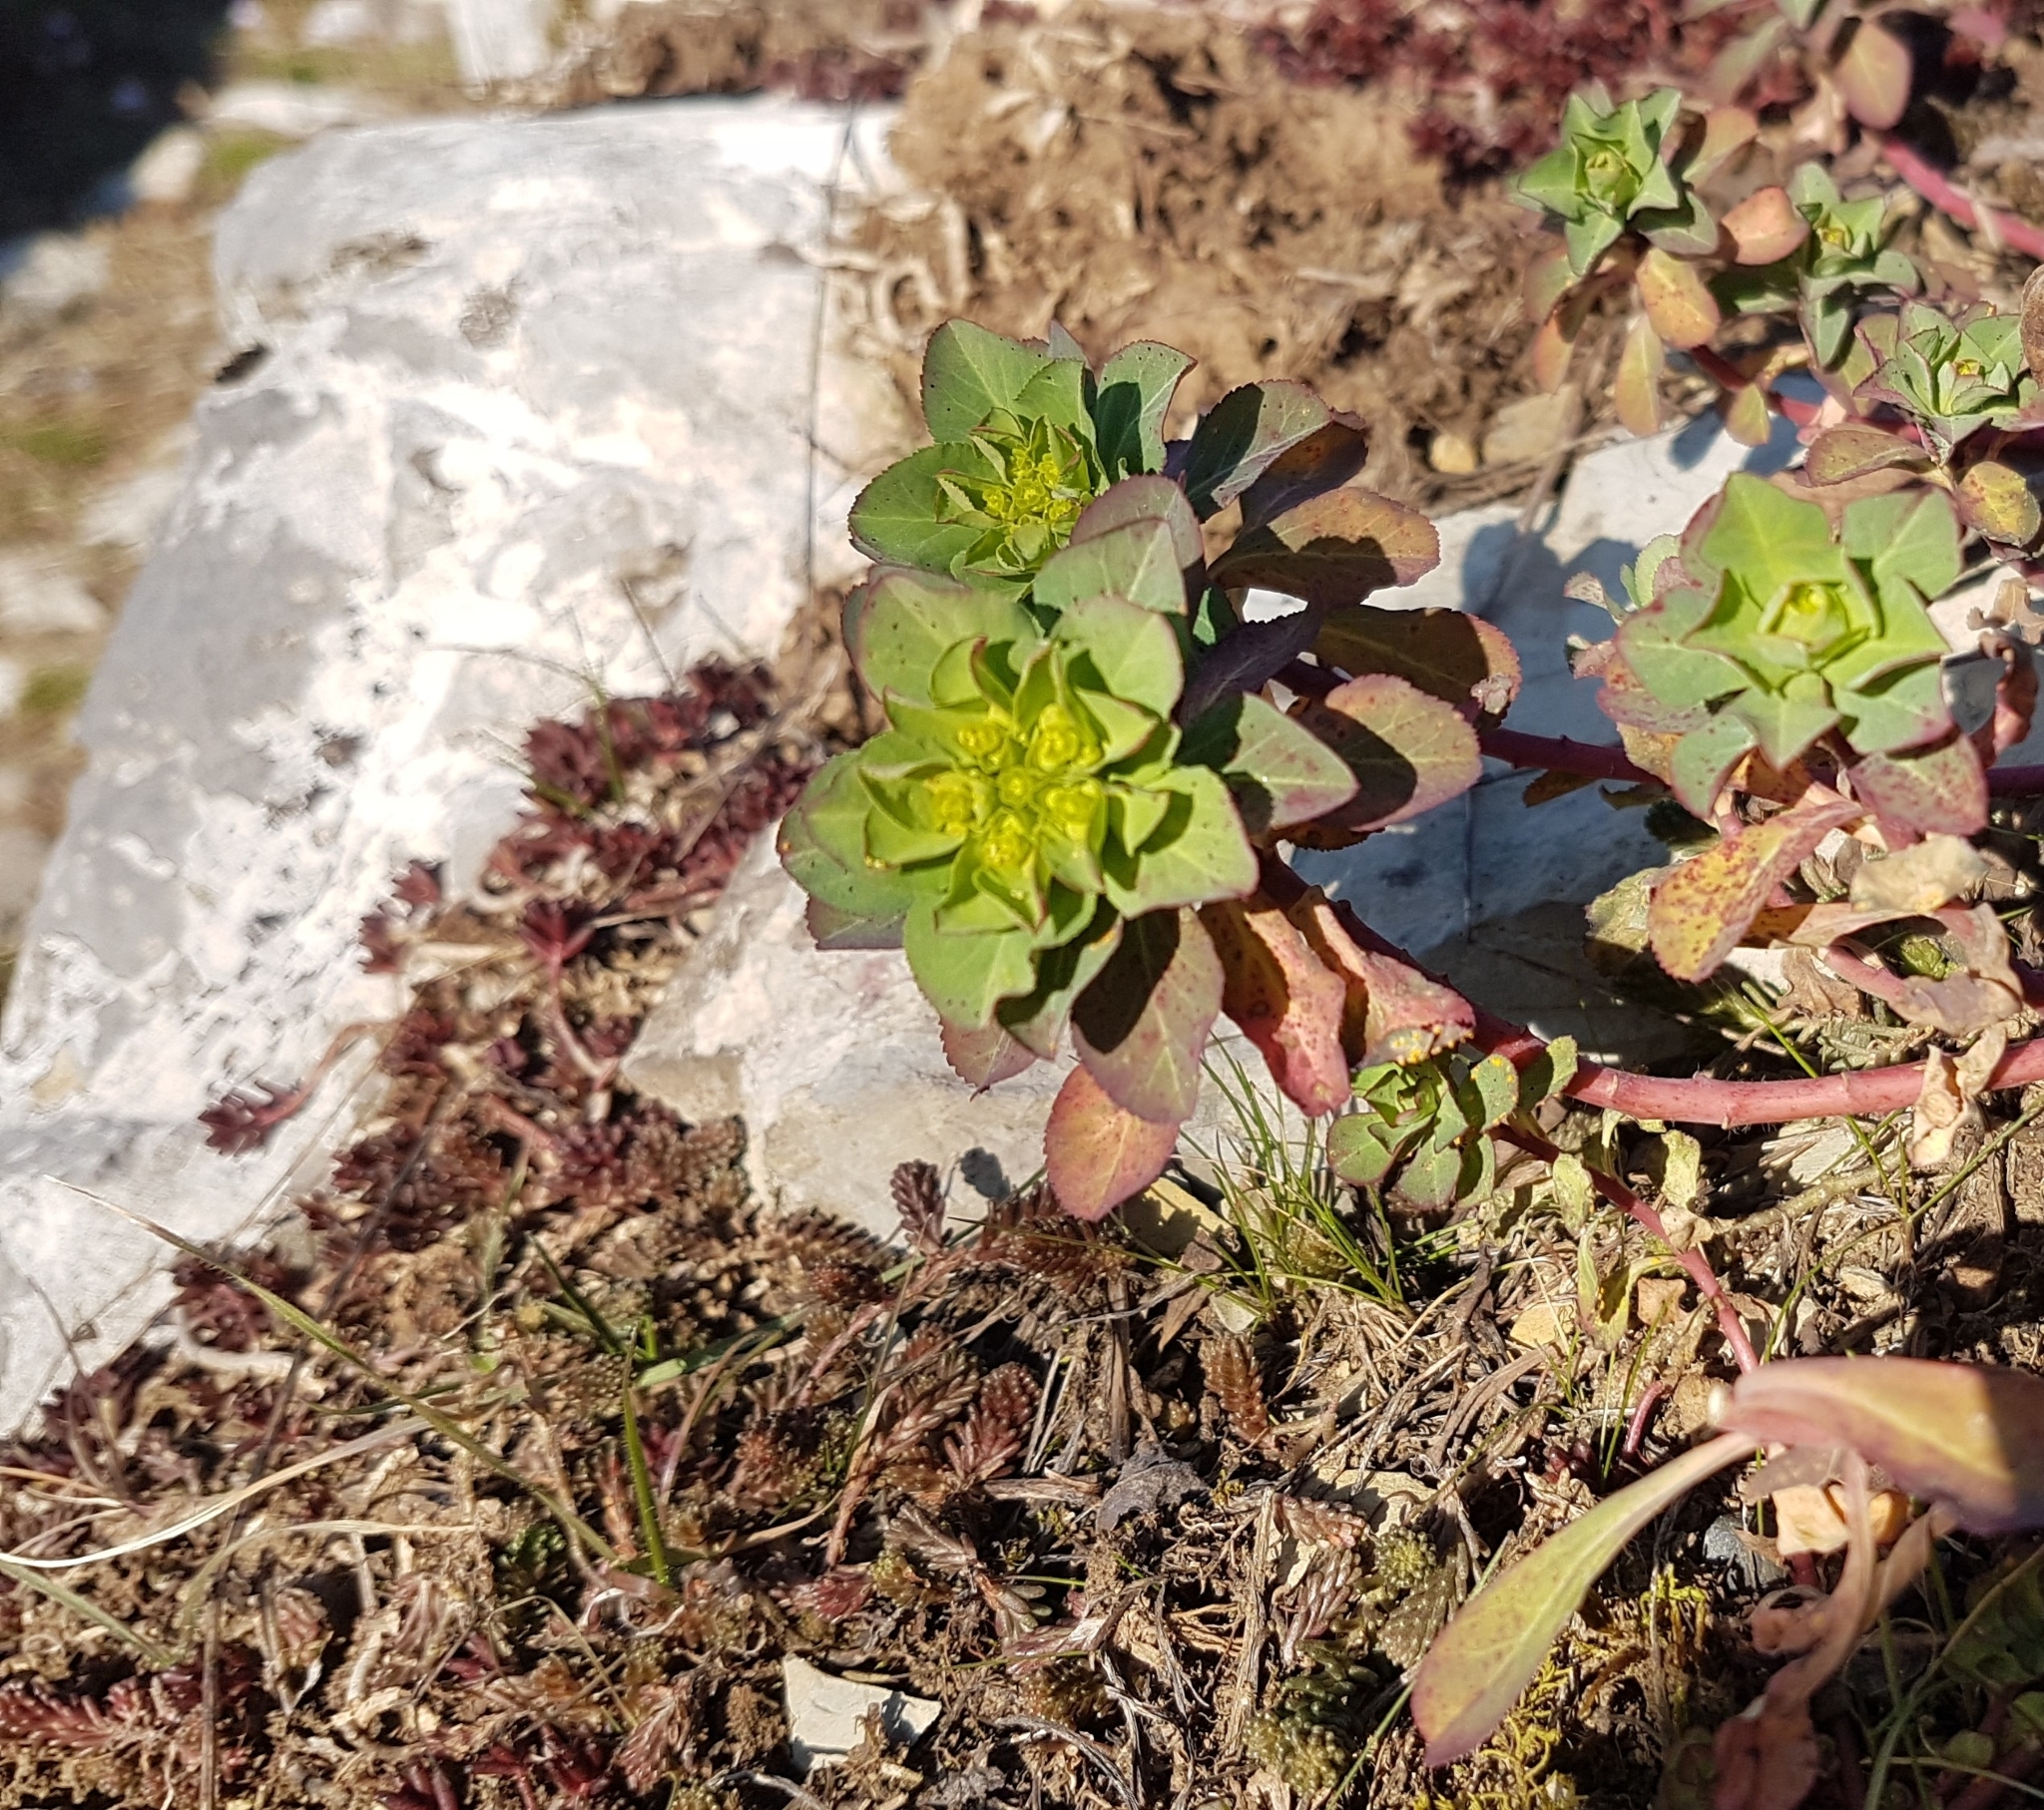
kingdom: Plantae
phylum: Tracheophyta
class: Magnoliopsida
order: Malpighiales
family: Euphorbiaceae
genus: Euphorbia
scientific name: Euphorbia helioscopia
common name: Sun spurge
